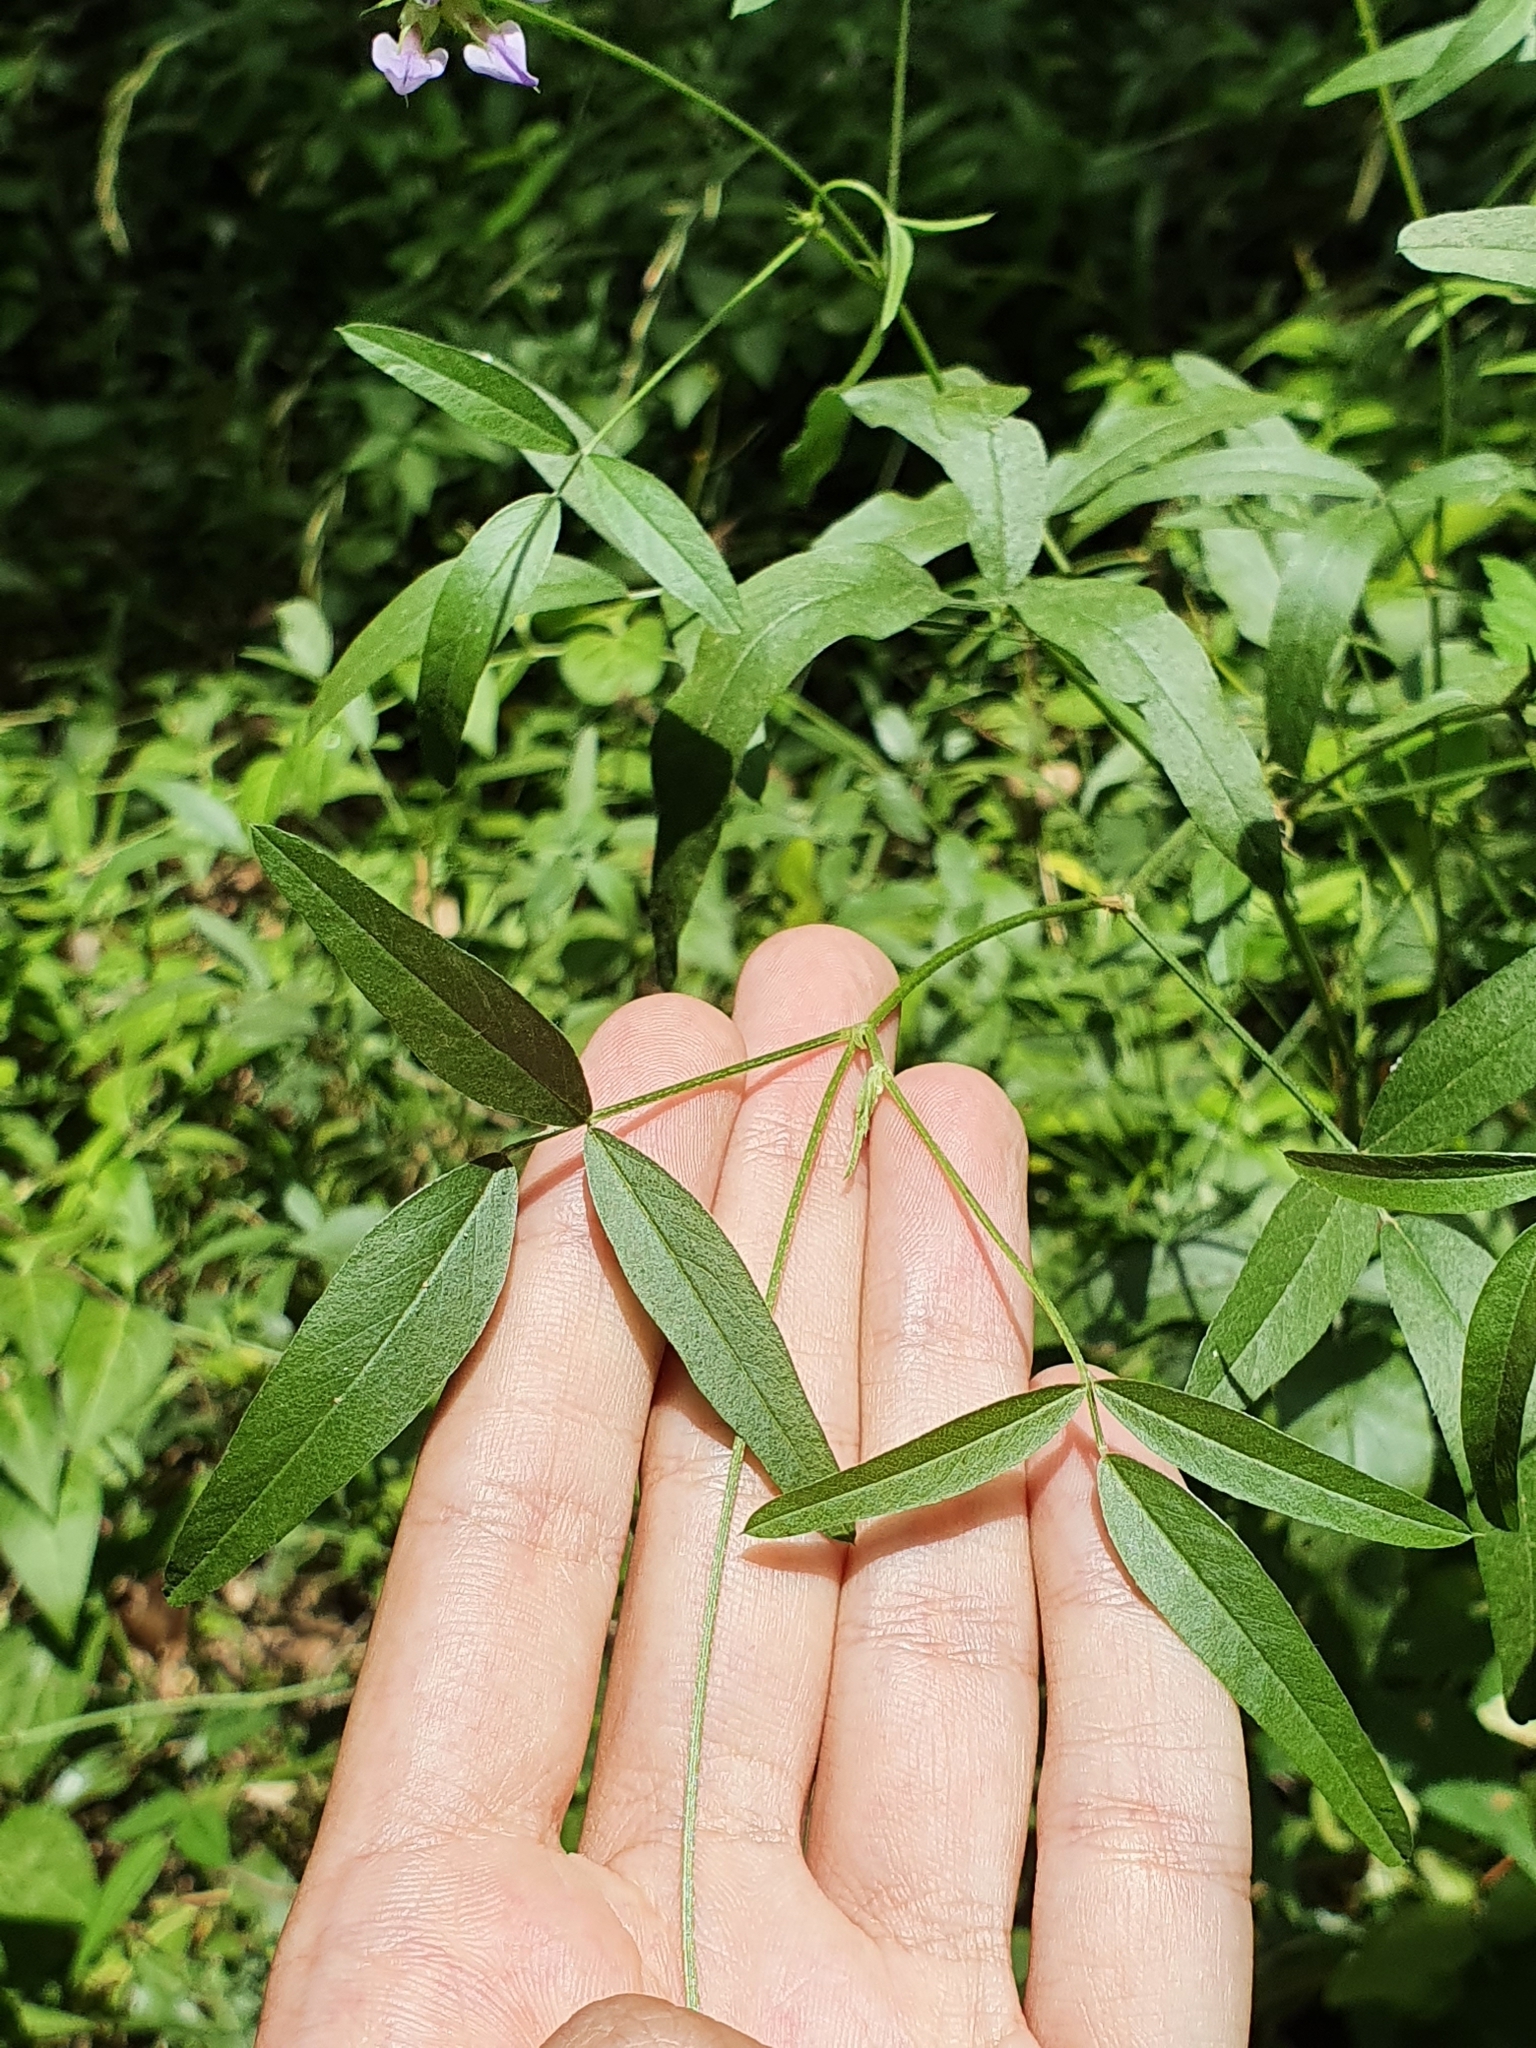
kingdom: Plantae
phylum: Tracheophyta
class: Magnoliopsida
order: Fabales
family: Fabaceae
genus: Bituminaria
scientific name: Bituminaria bituminosa
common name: Arabian pea
